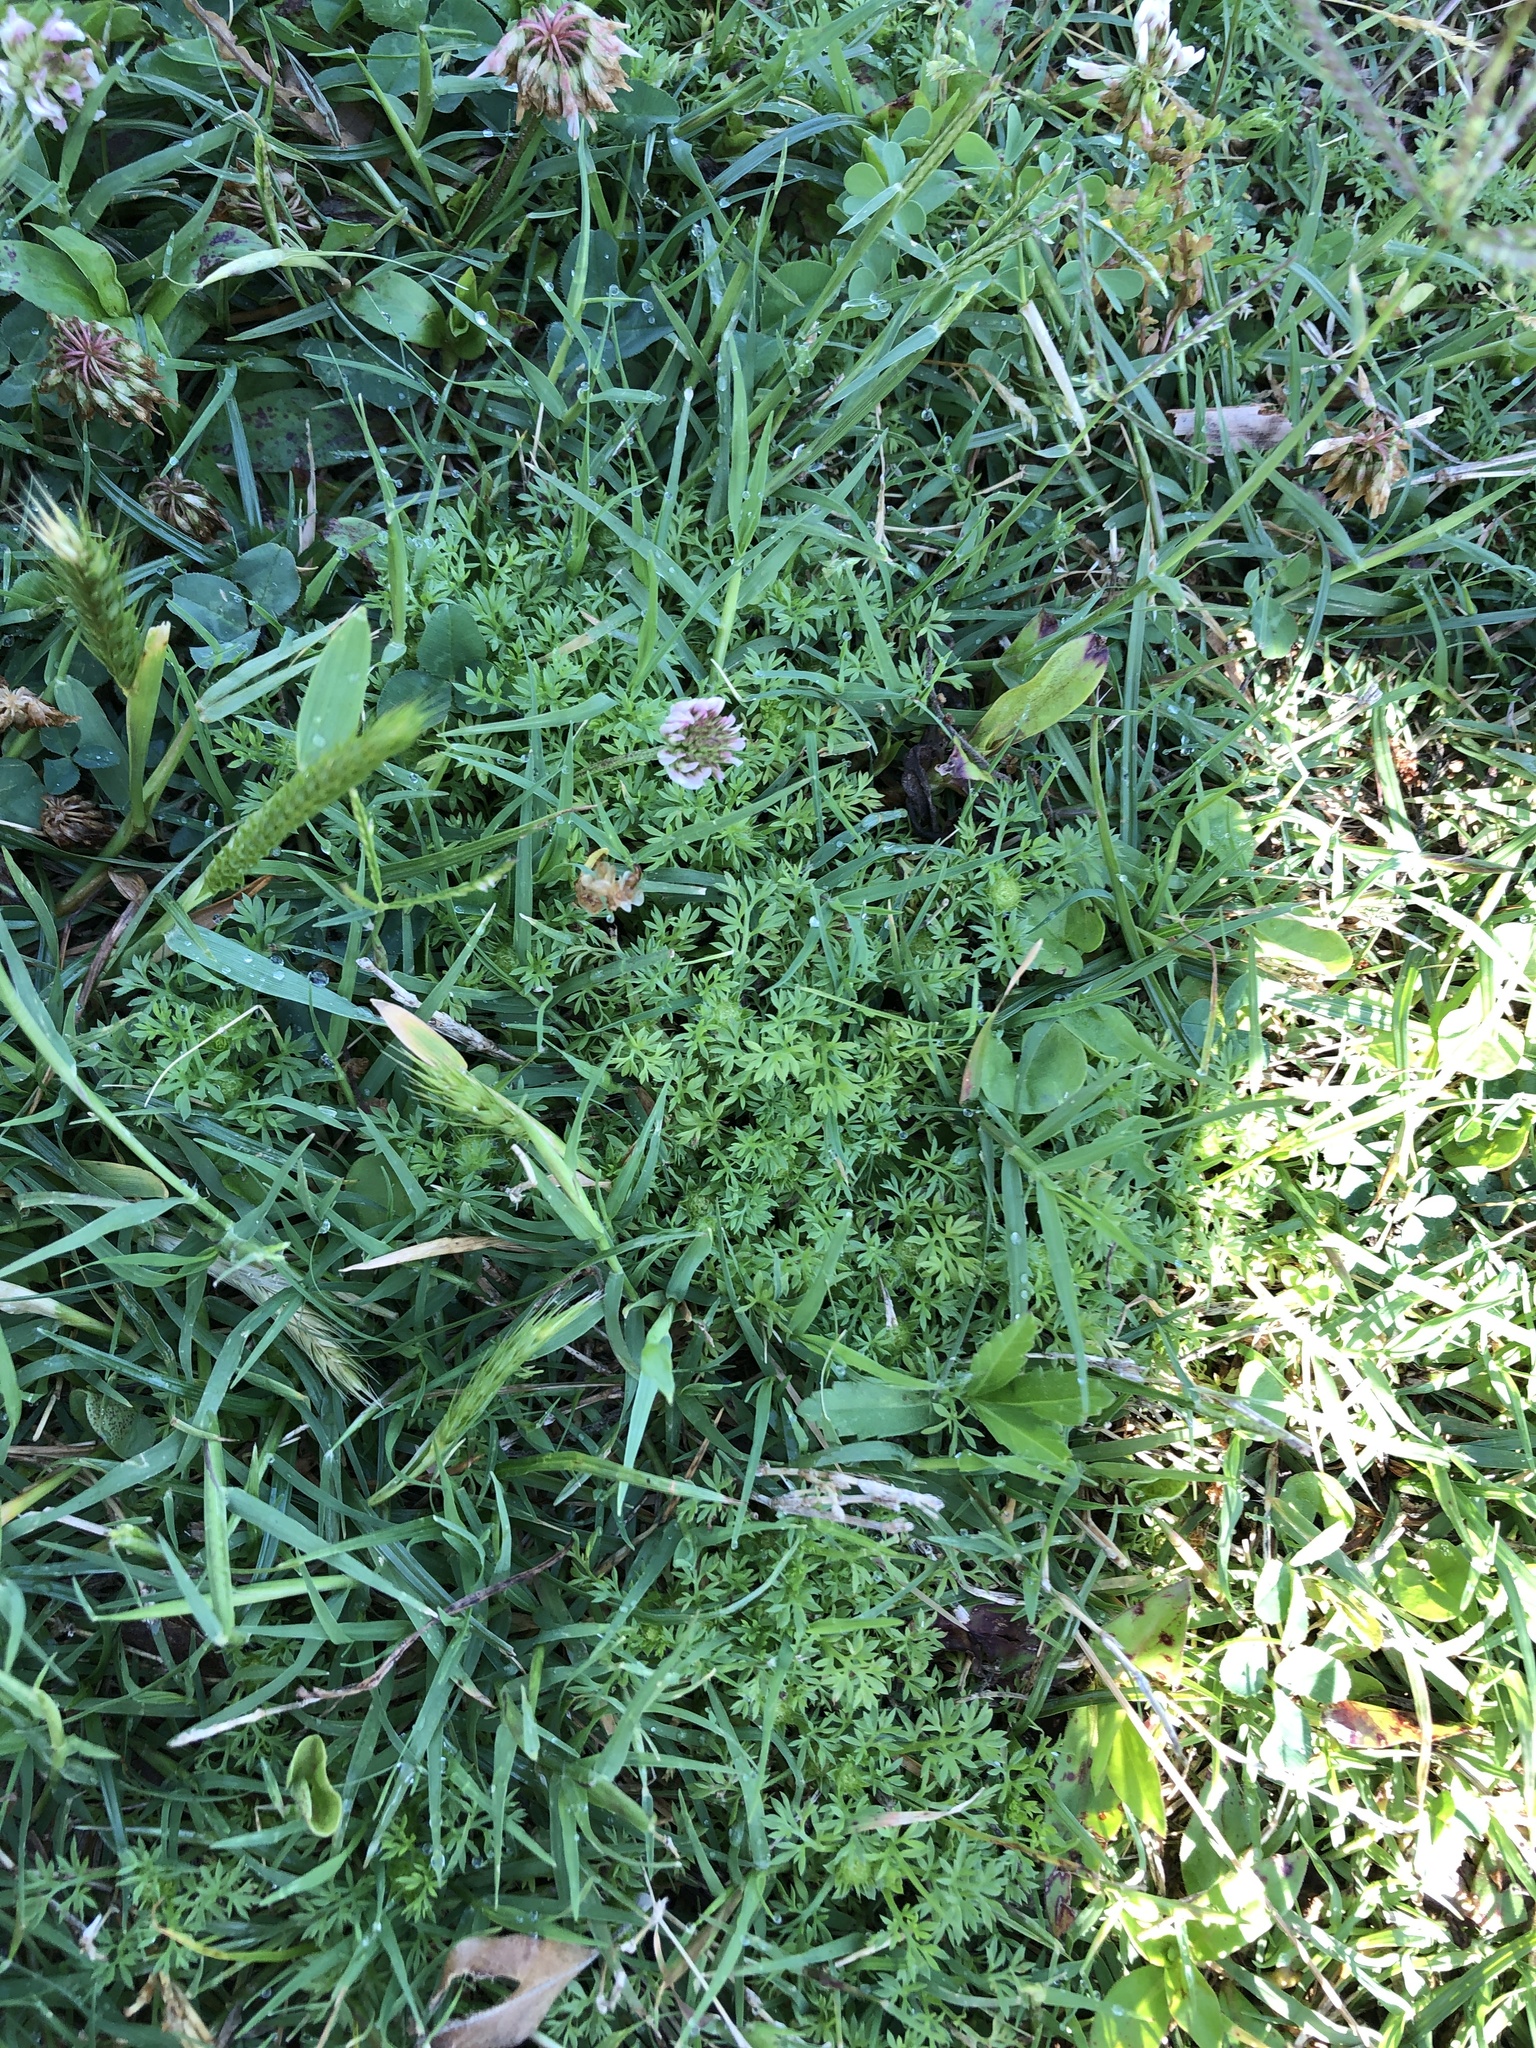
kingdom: Plantae
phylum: Tracheophyta
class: Magnoliopsida
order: Asterales
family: Asteraceae
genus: Soliva
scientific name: Soliva sessilis
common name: Field burrweed
